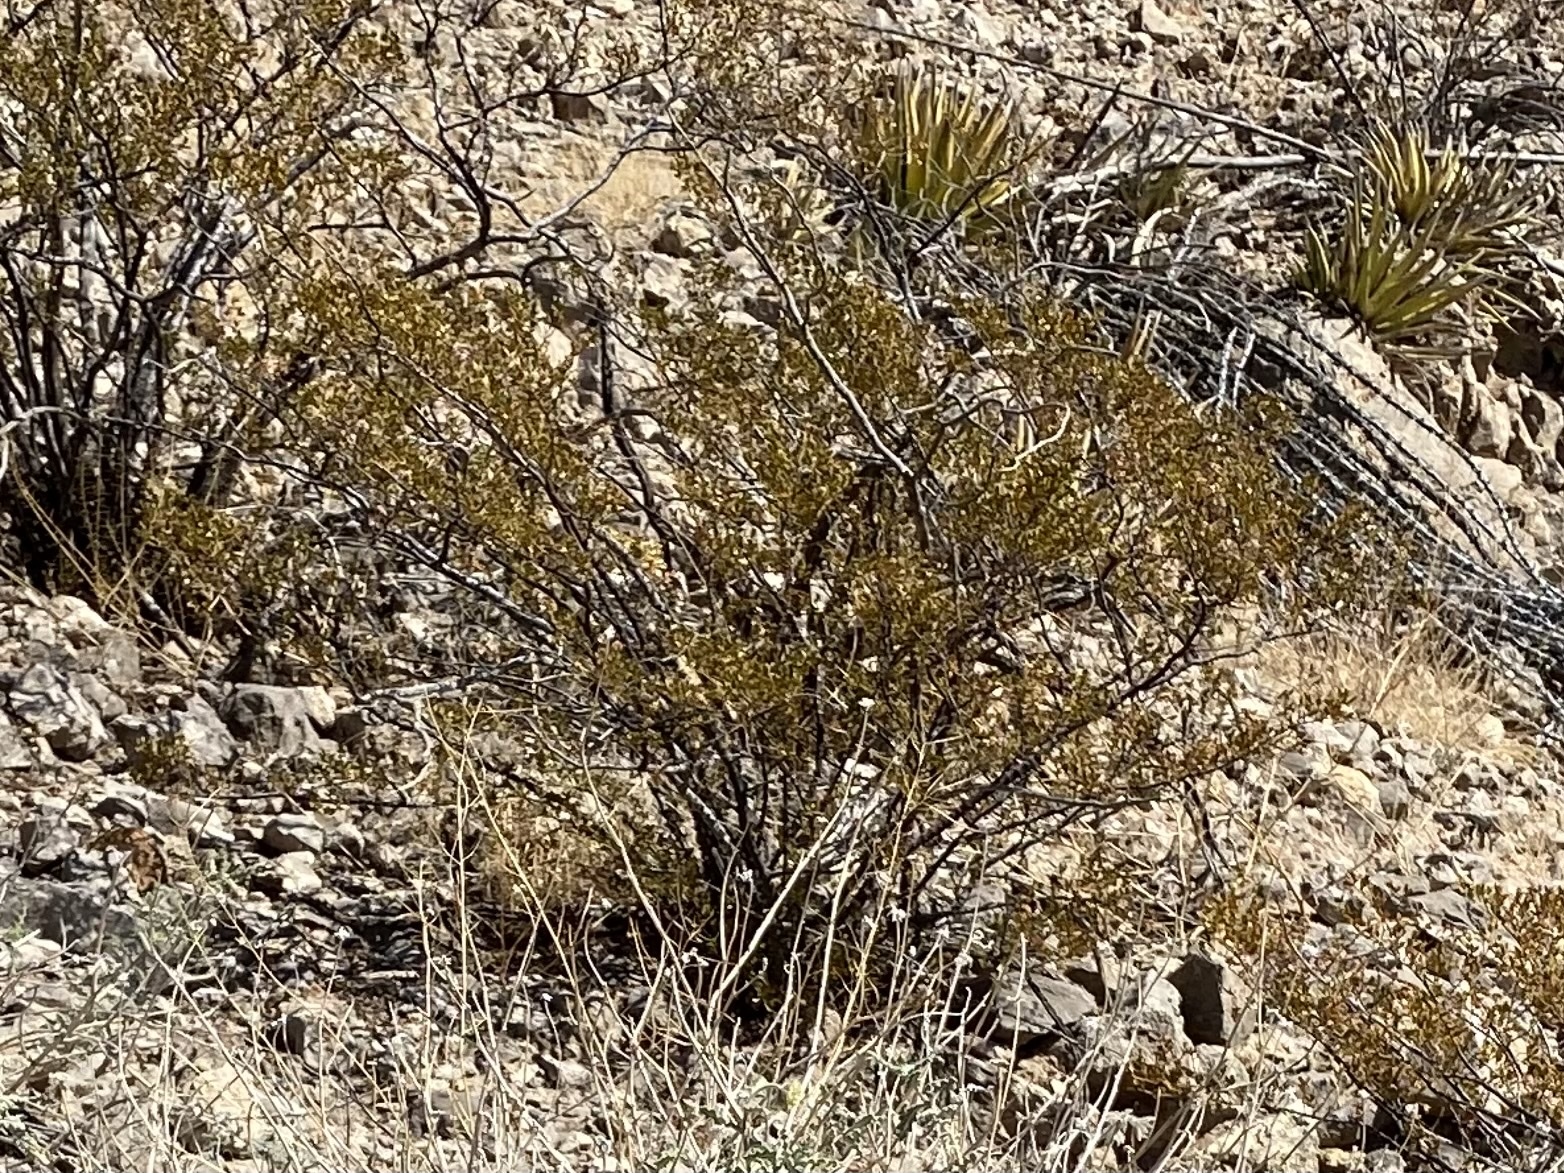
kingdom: Plantae
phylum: Tracheophyta
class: Magnoliopsida
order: Zygophyllales
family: Zygophyllaceae
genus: Larrea
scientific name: Larrea tridentata
